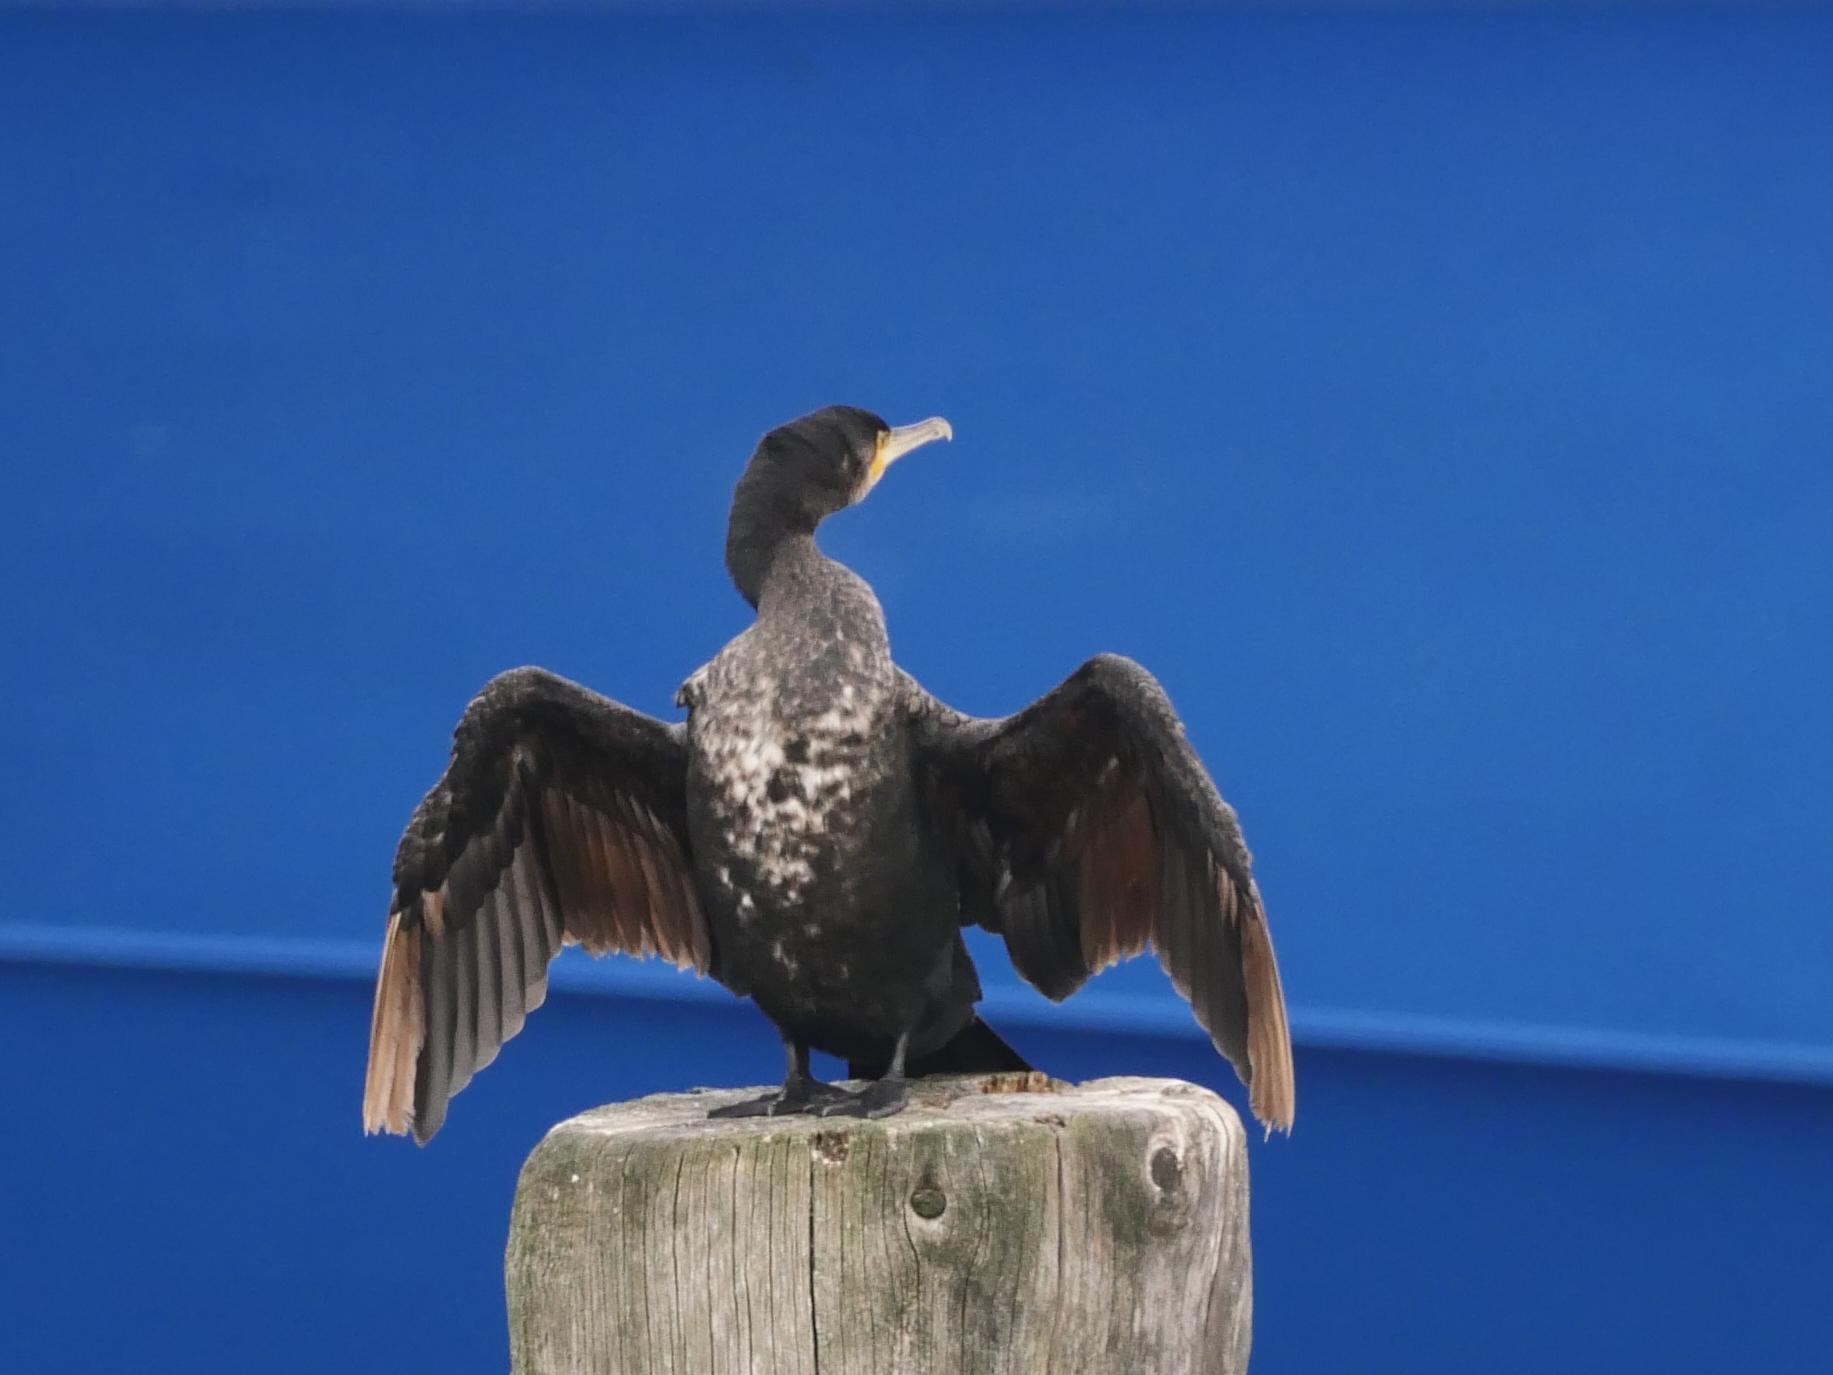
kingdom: Animalia
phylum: Chordata
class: Aves
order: Suliformes
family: Phalacrocoracidae
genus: Phalacrocorax
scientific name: Phalacrocorax carbo
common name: Great cormorant
